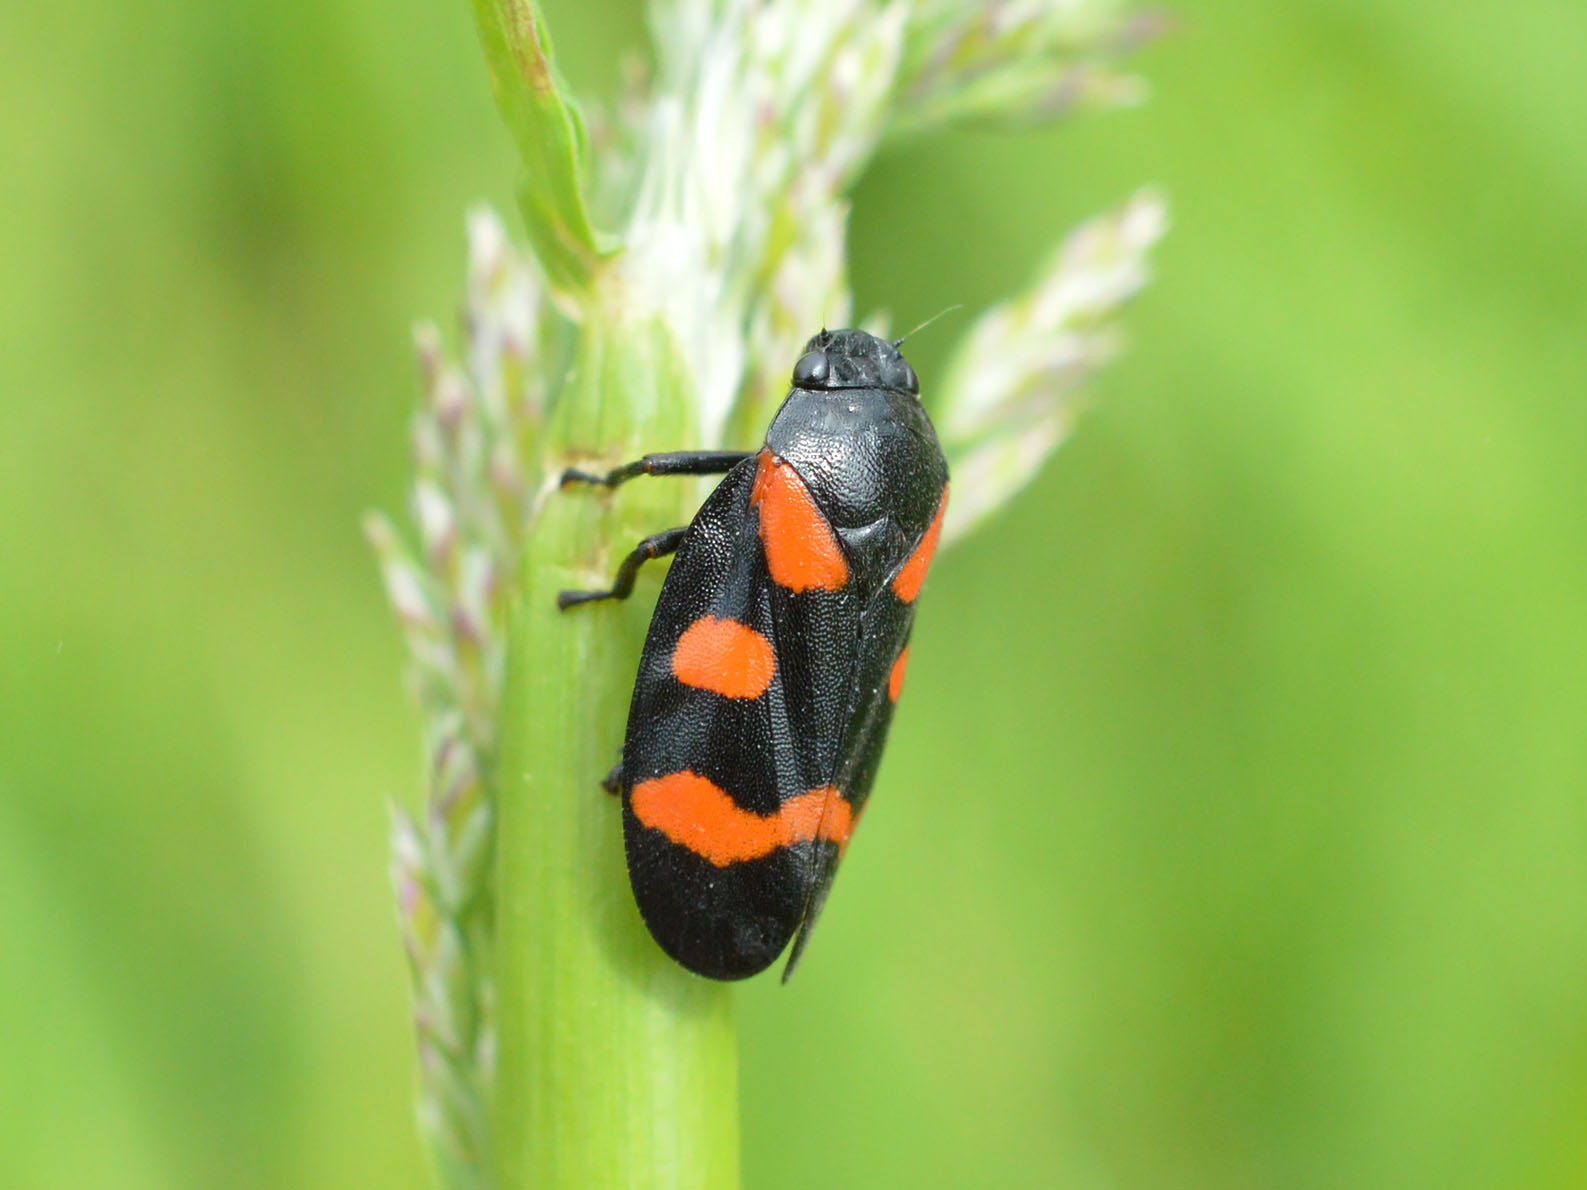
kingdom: Animalia
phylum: Arthropoda
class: Insecta
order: Hemiptera
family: Cercopidae
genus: Cercopis
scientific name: Cercopis sanguinolenta
